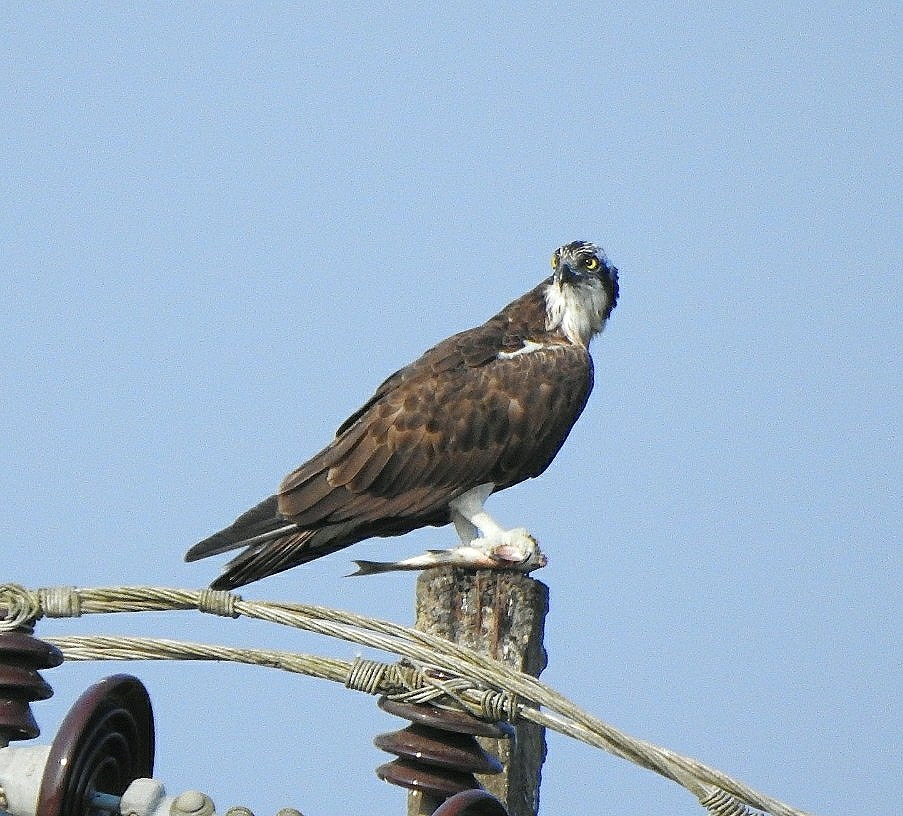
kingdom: Animalia
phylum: Chordata
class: Aves
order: Accipitriformes
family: Pandionidae
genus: Pandion
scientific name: Pandion haliaetus
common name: Osprey
